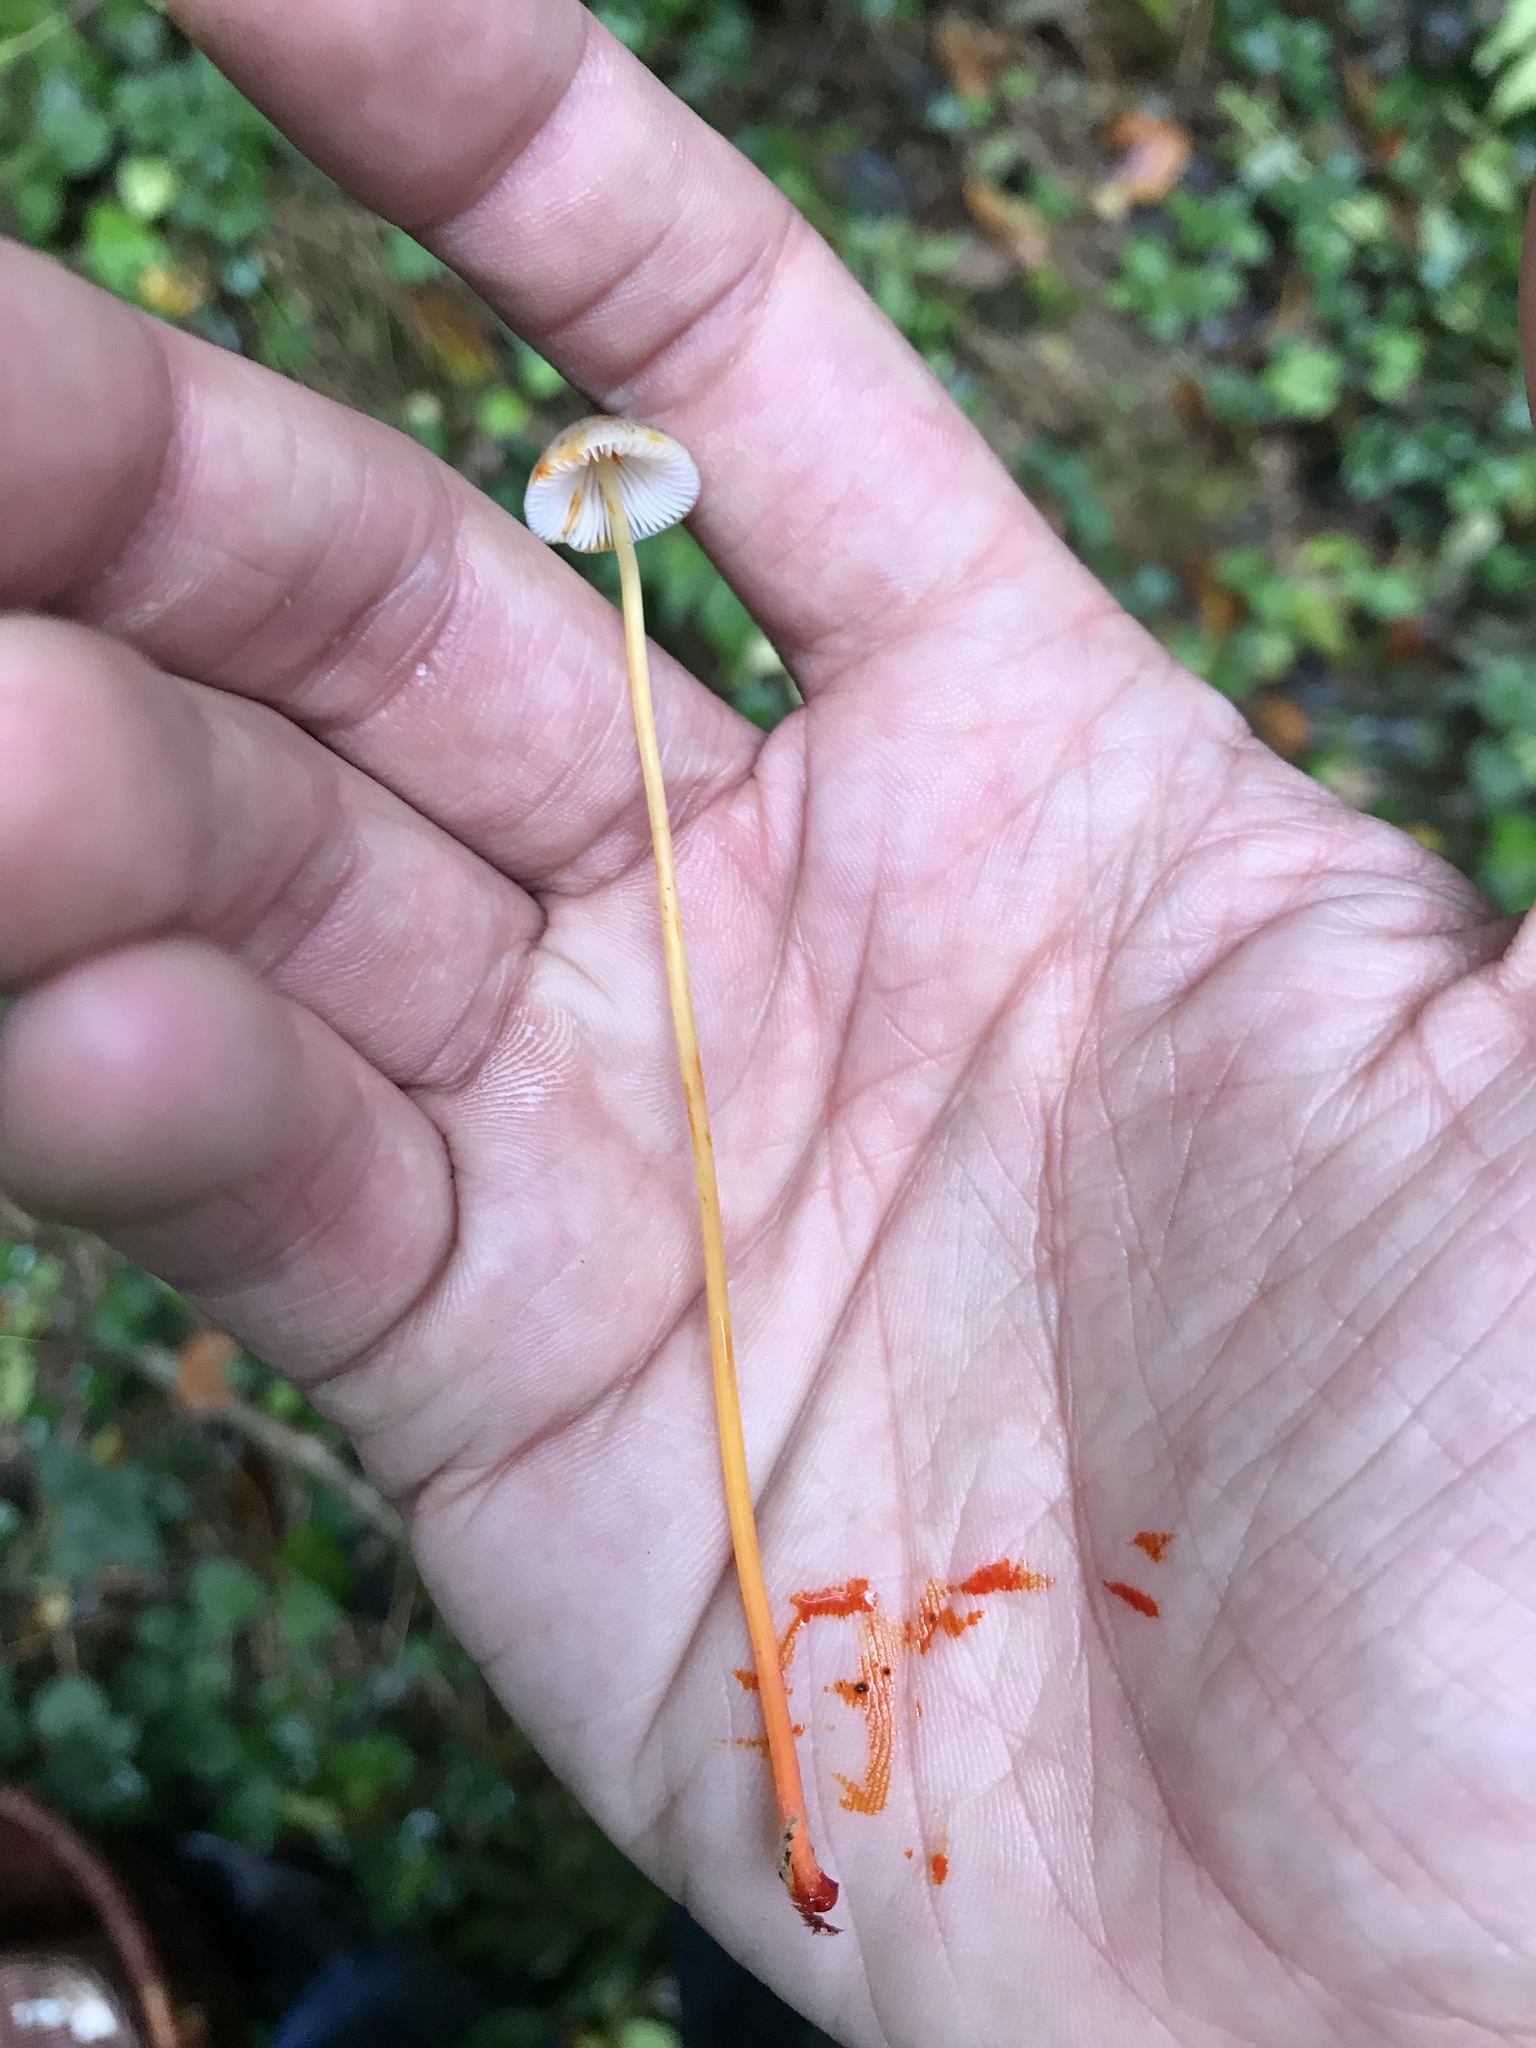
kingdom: Fungi
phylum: Basidiomycota
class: Agaricomycetes
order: Agaricales
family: Mycenaceae
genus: Mycena
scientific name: Mycena crocata
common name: Saffrondrop bonnet
